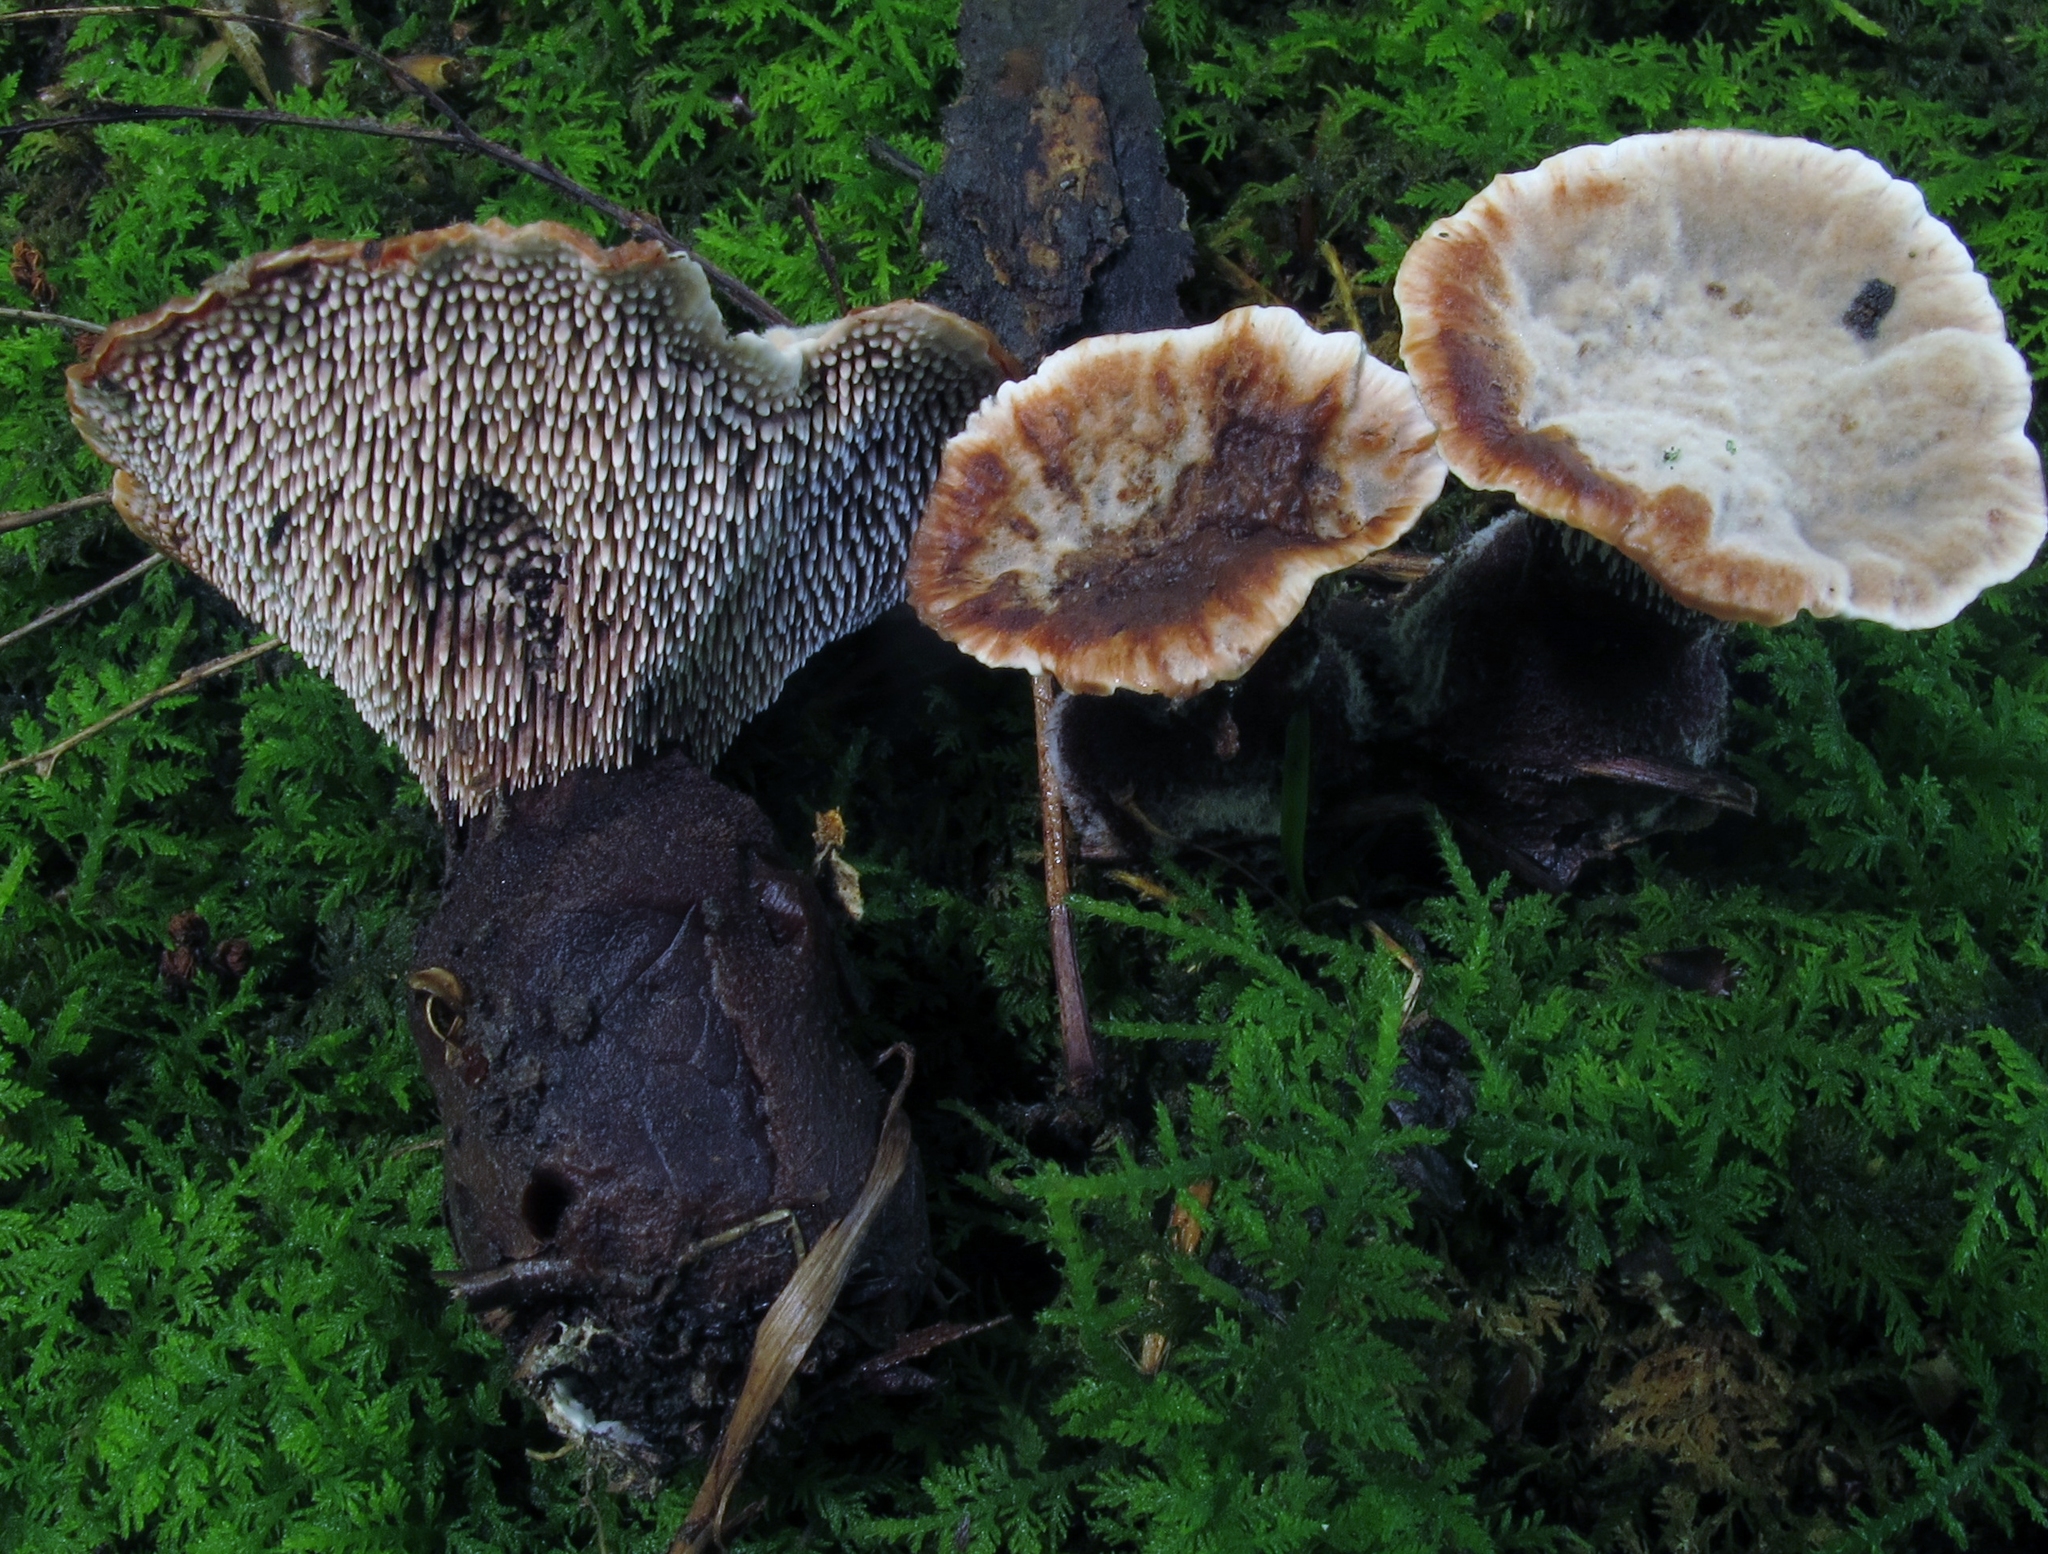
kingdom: Fungi
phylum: Basidiomycota
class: Agaricomycetes
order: Thelephorales
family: Bankeraceae
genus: Hydnellum
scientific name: Hydnellum spongiosipes
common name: Velvet tooth
